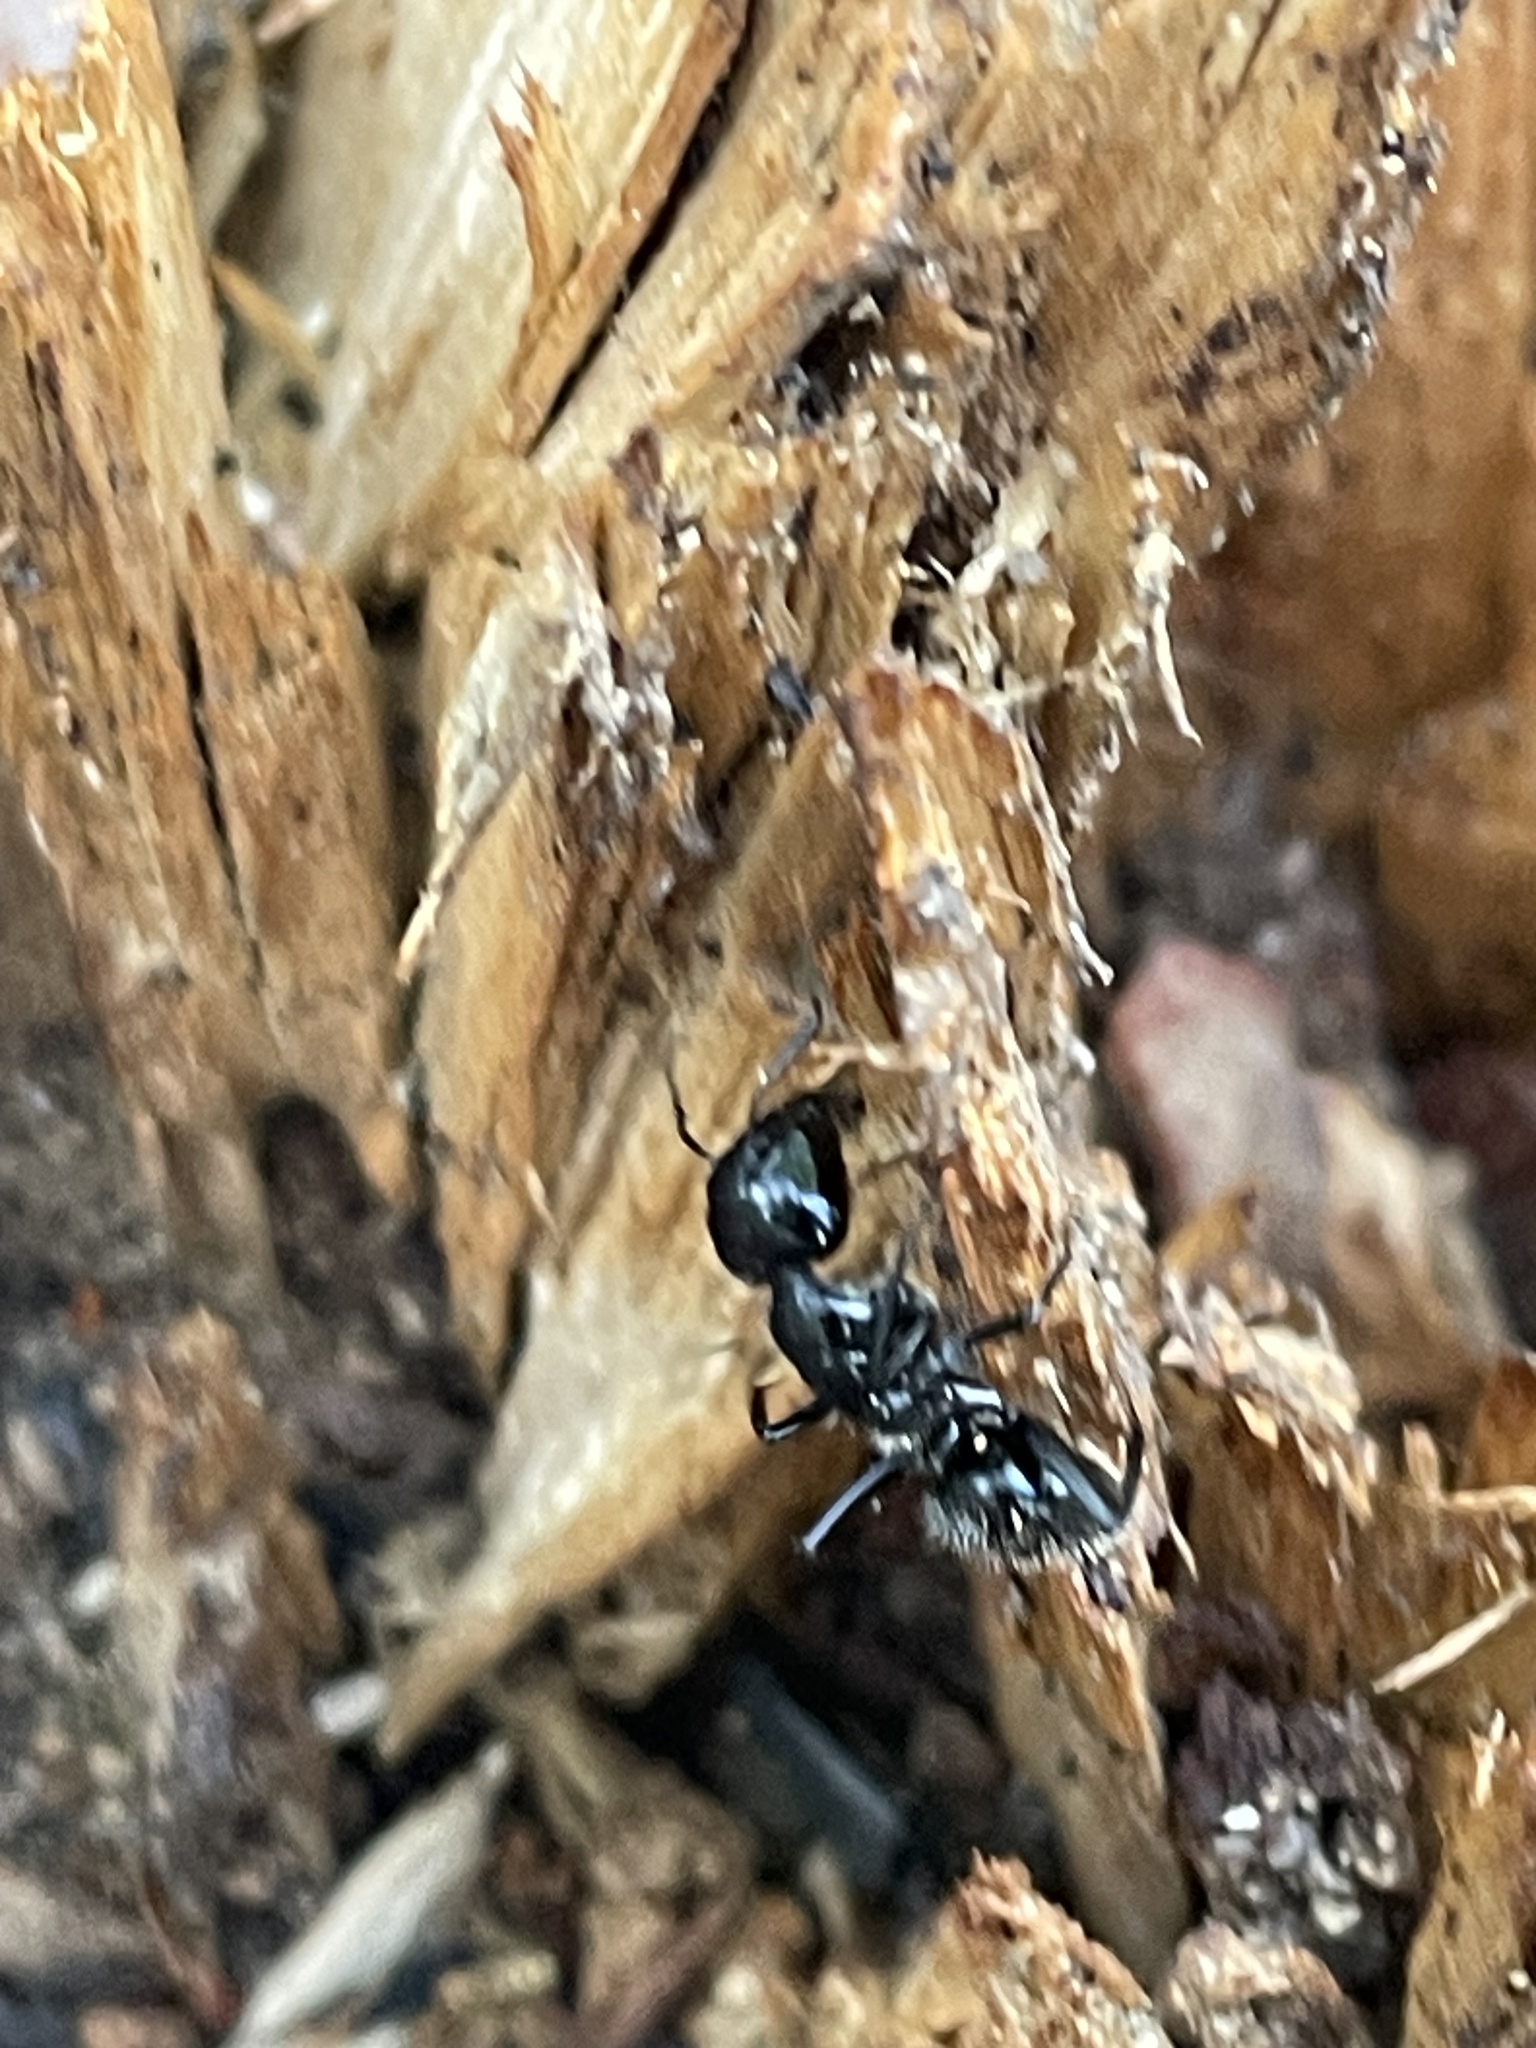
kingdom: Animalia
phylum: Arthropoda
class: Insecta
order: Hymenoptera
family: Formicidae
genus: Camponotus
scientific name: Camponotus
